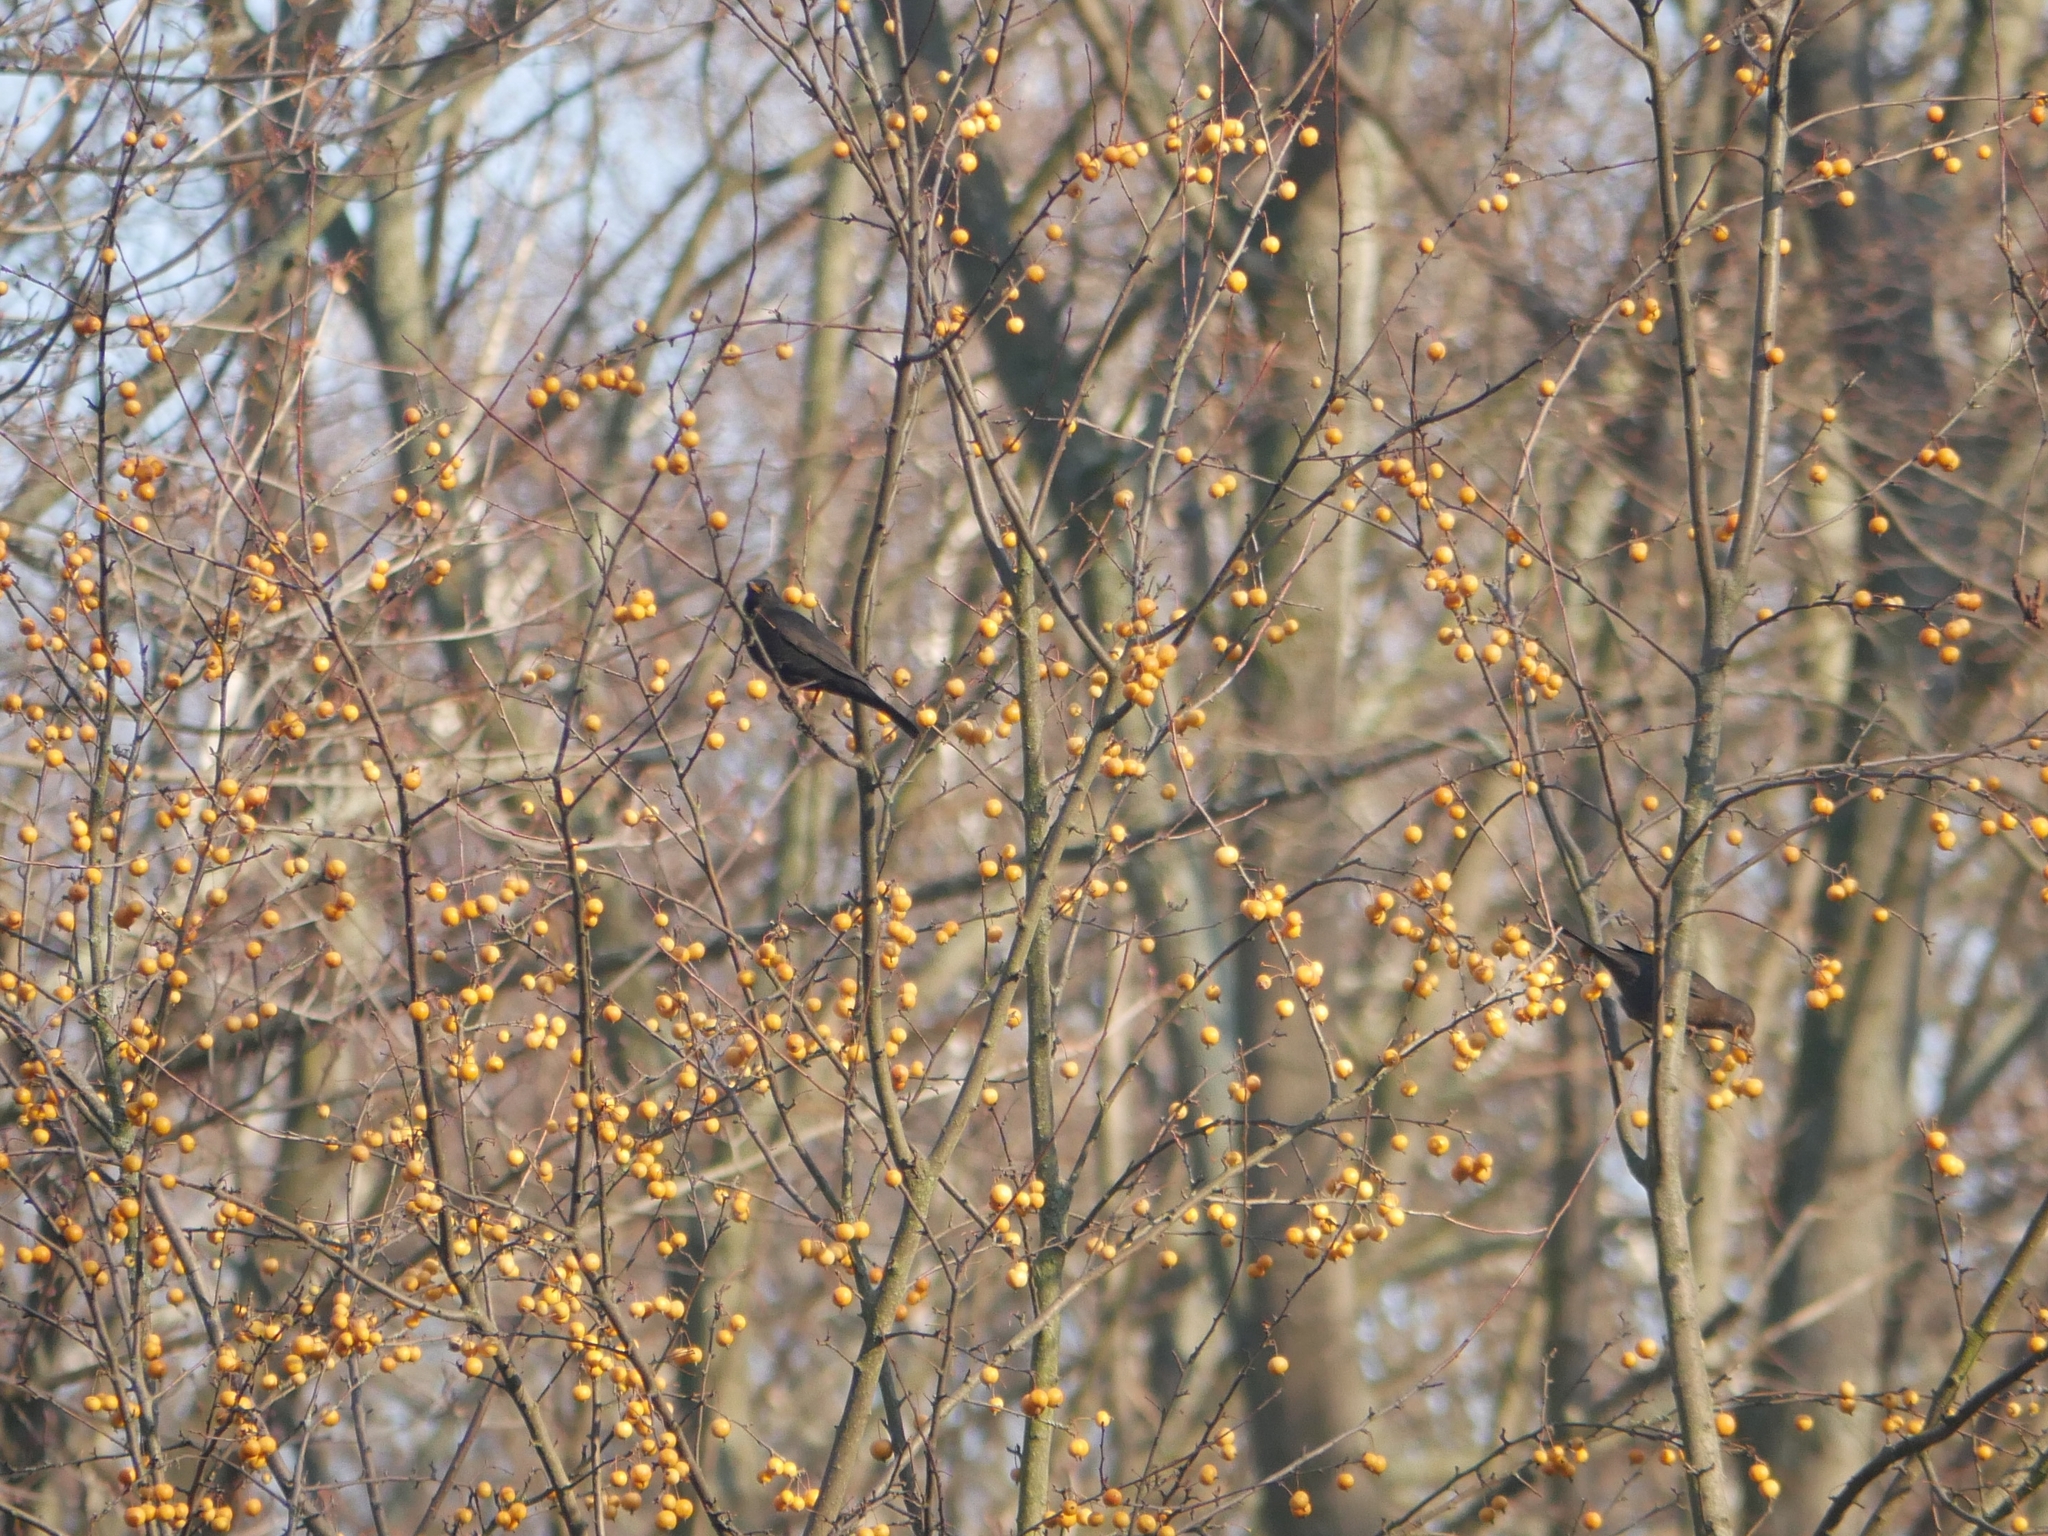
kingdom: Animalia
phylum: Chordata
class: Aves
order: Passeriformes
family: Turdidae
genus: Turdus
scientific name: Turdus merula
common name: Common blackbird
